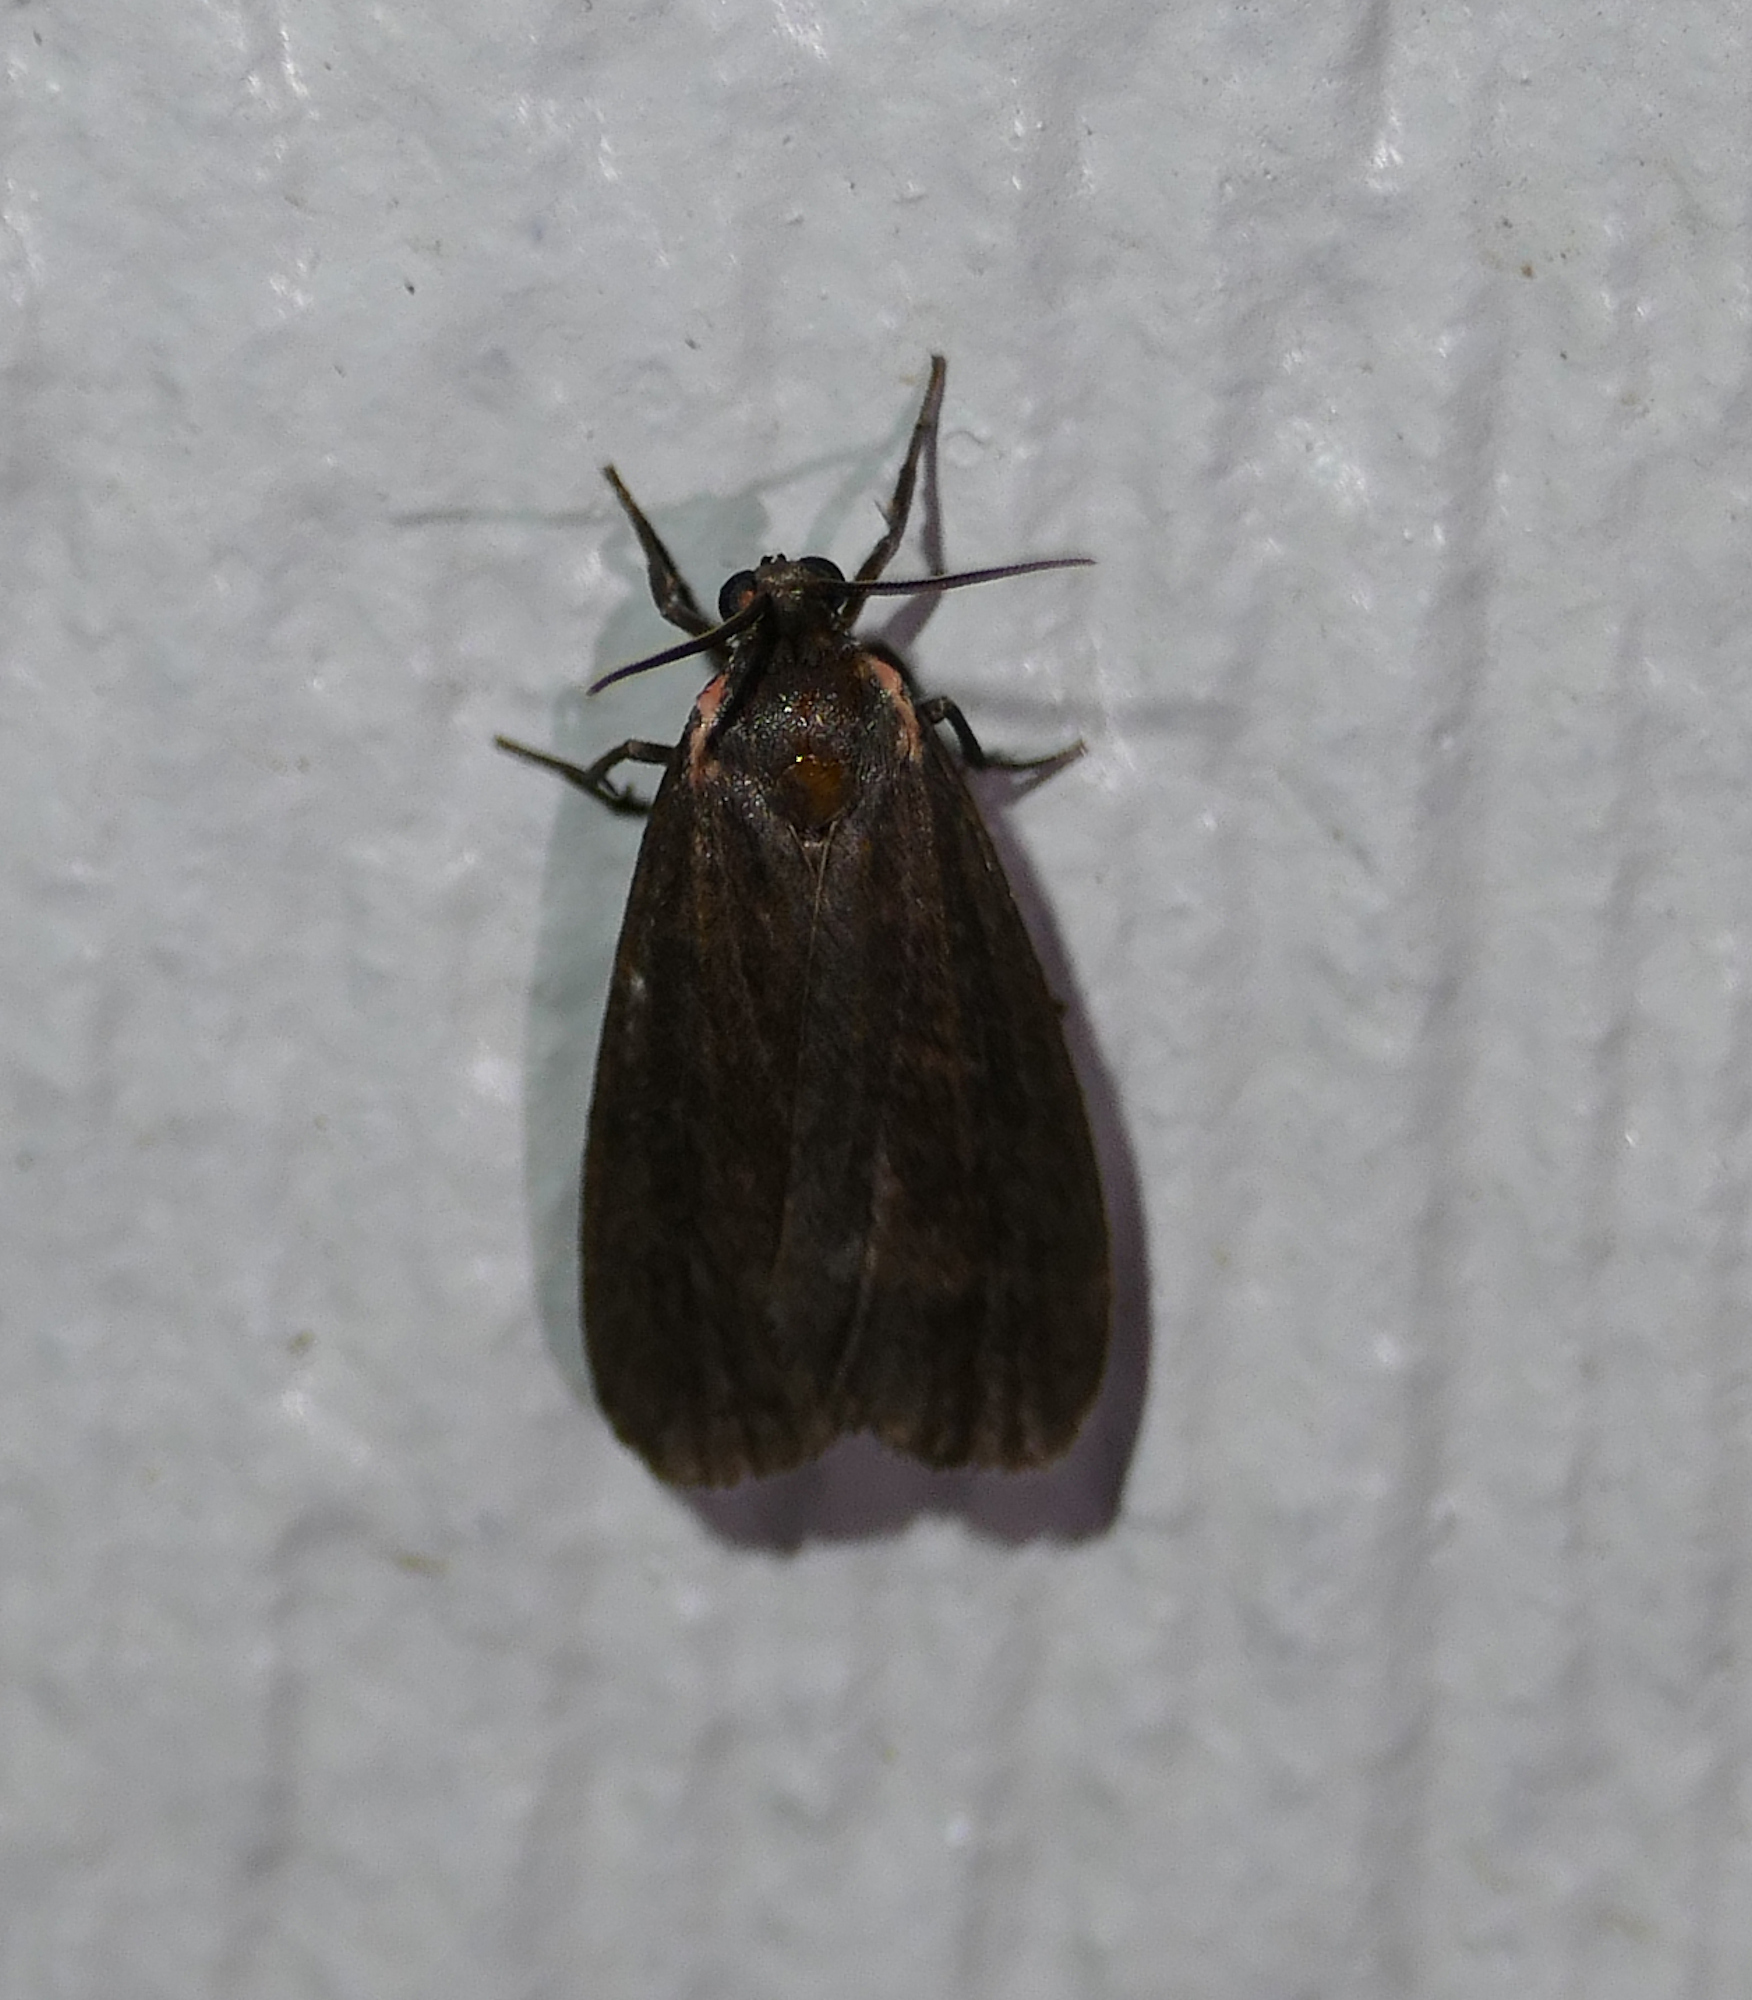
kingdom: Animalia
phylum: Arthropoda
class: Insecta
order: Lepidoptera
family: Erebidae
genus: Hypoprepia
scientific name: Hypoprepia inculta
